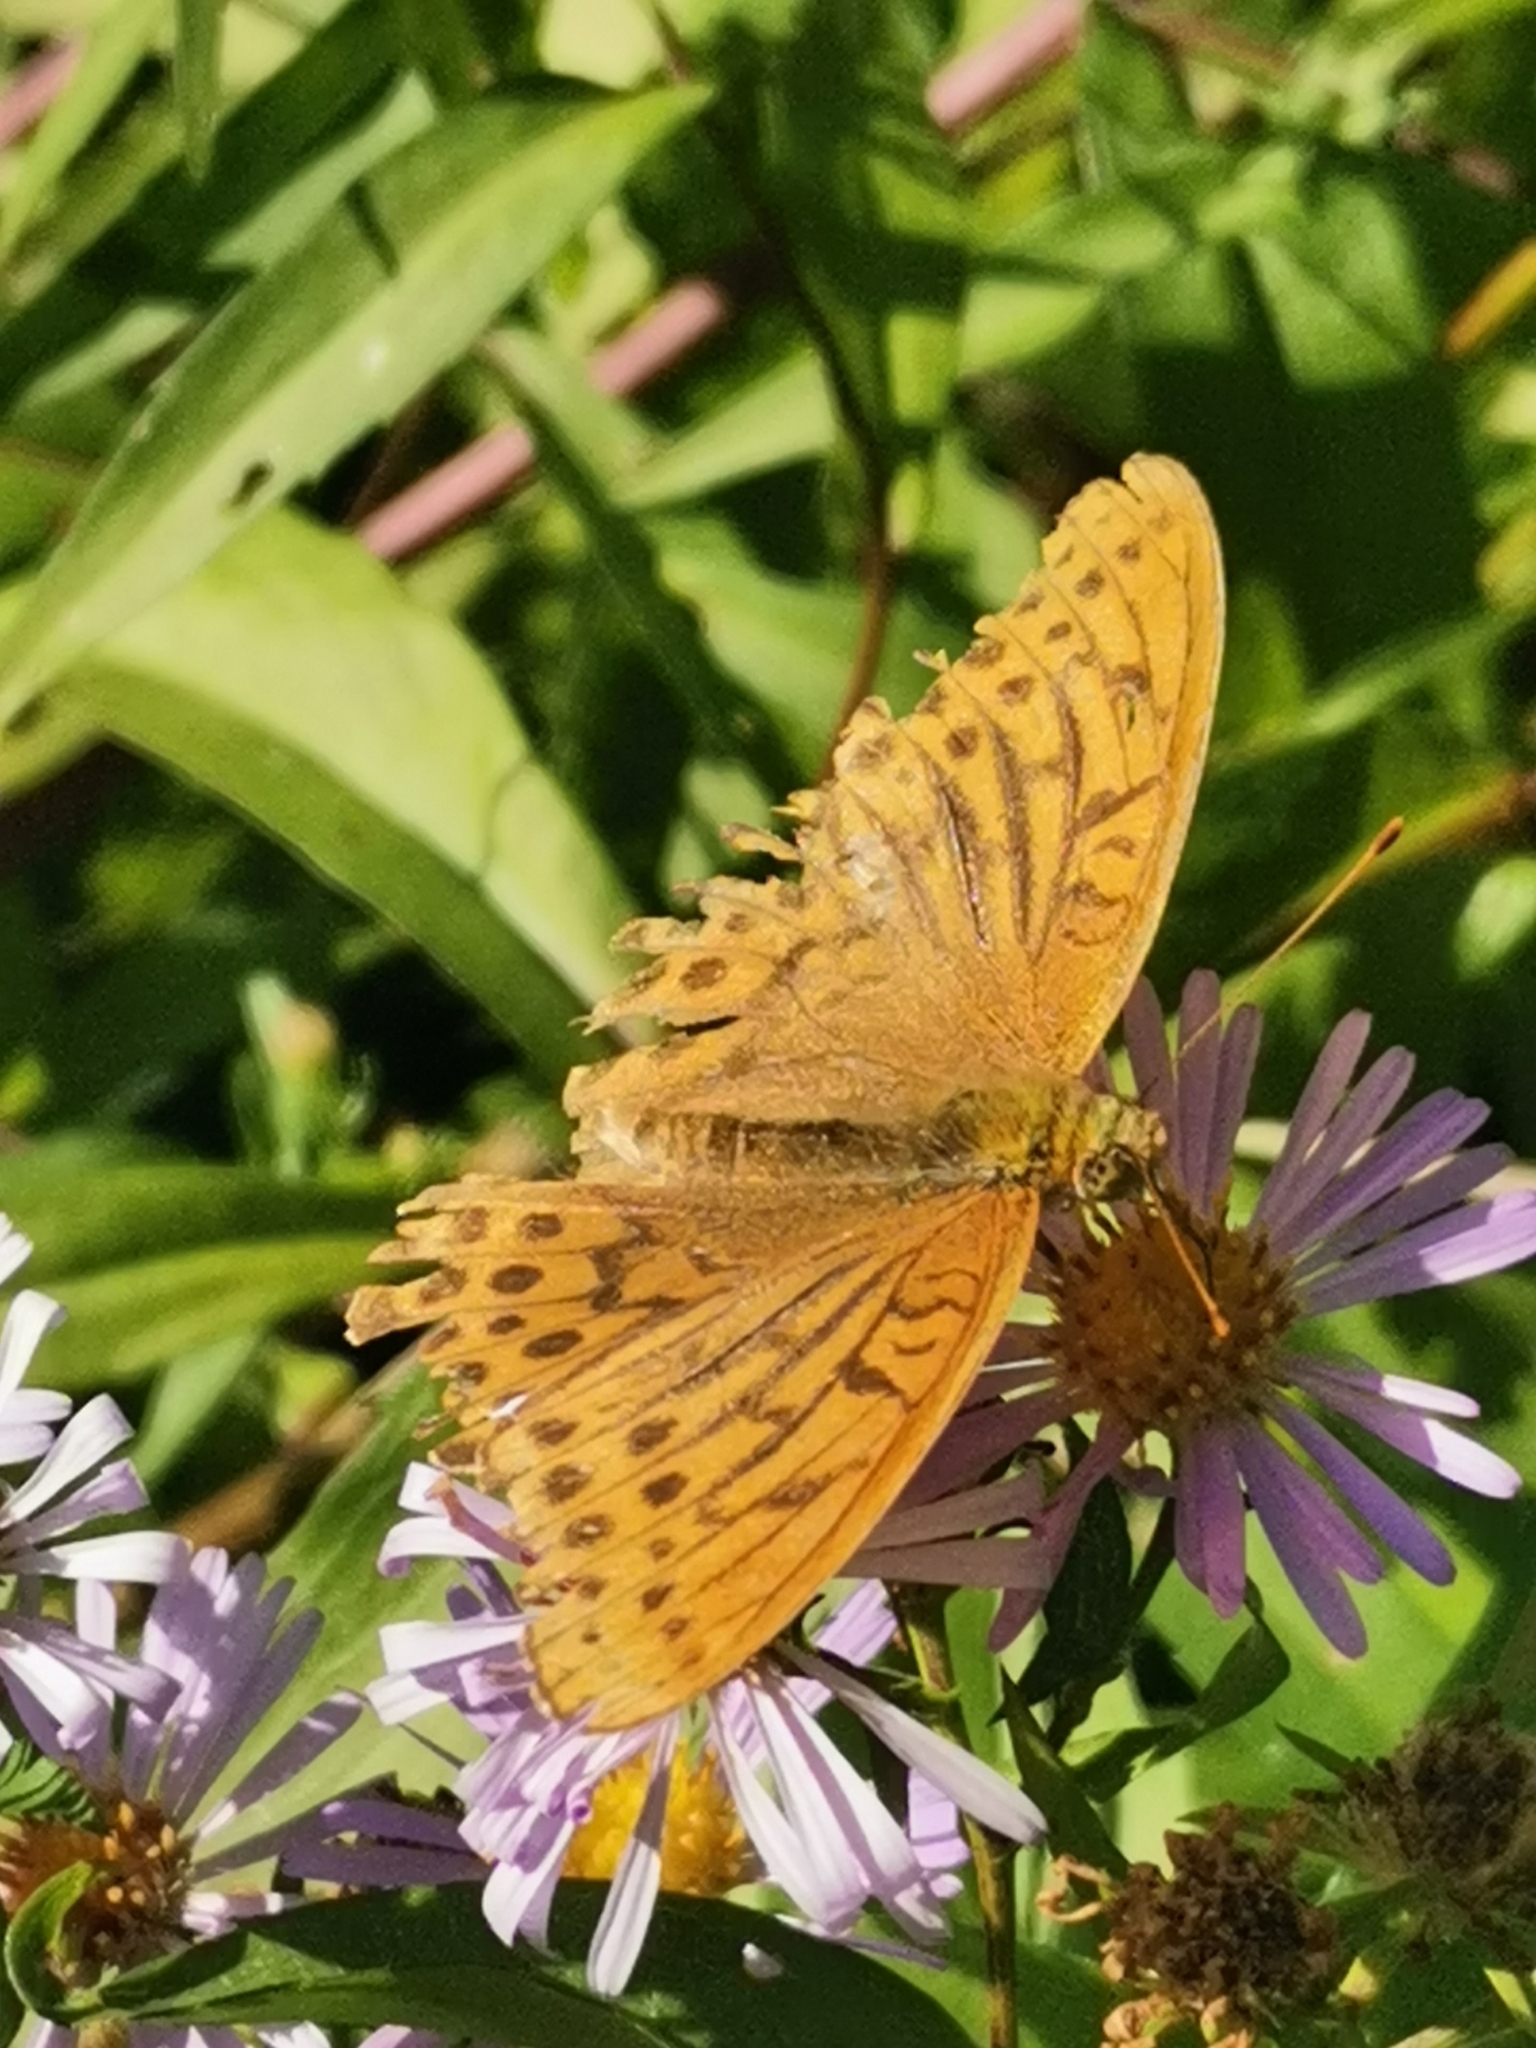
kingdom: Animalia
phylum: Arthropoda
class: Insecta
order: Lepidoptera
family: Nymphalidae
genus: Argynnis
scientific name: Argynnis paphia
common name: Silver-washed fritillary
